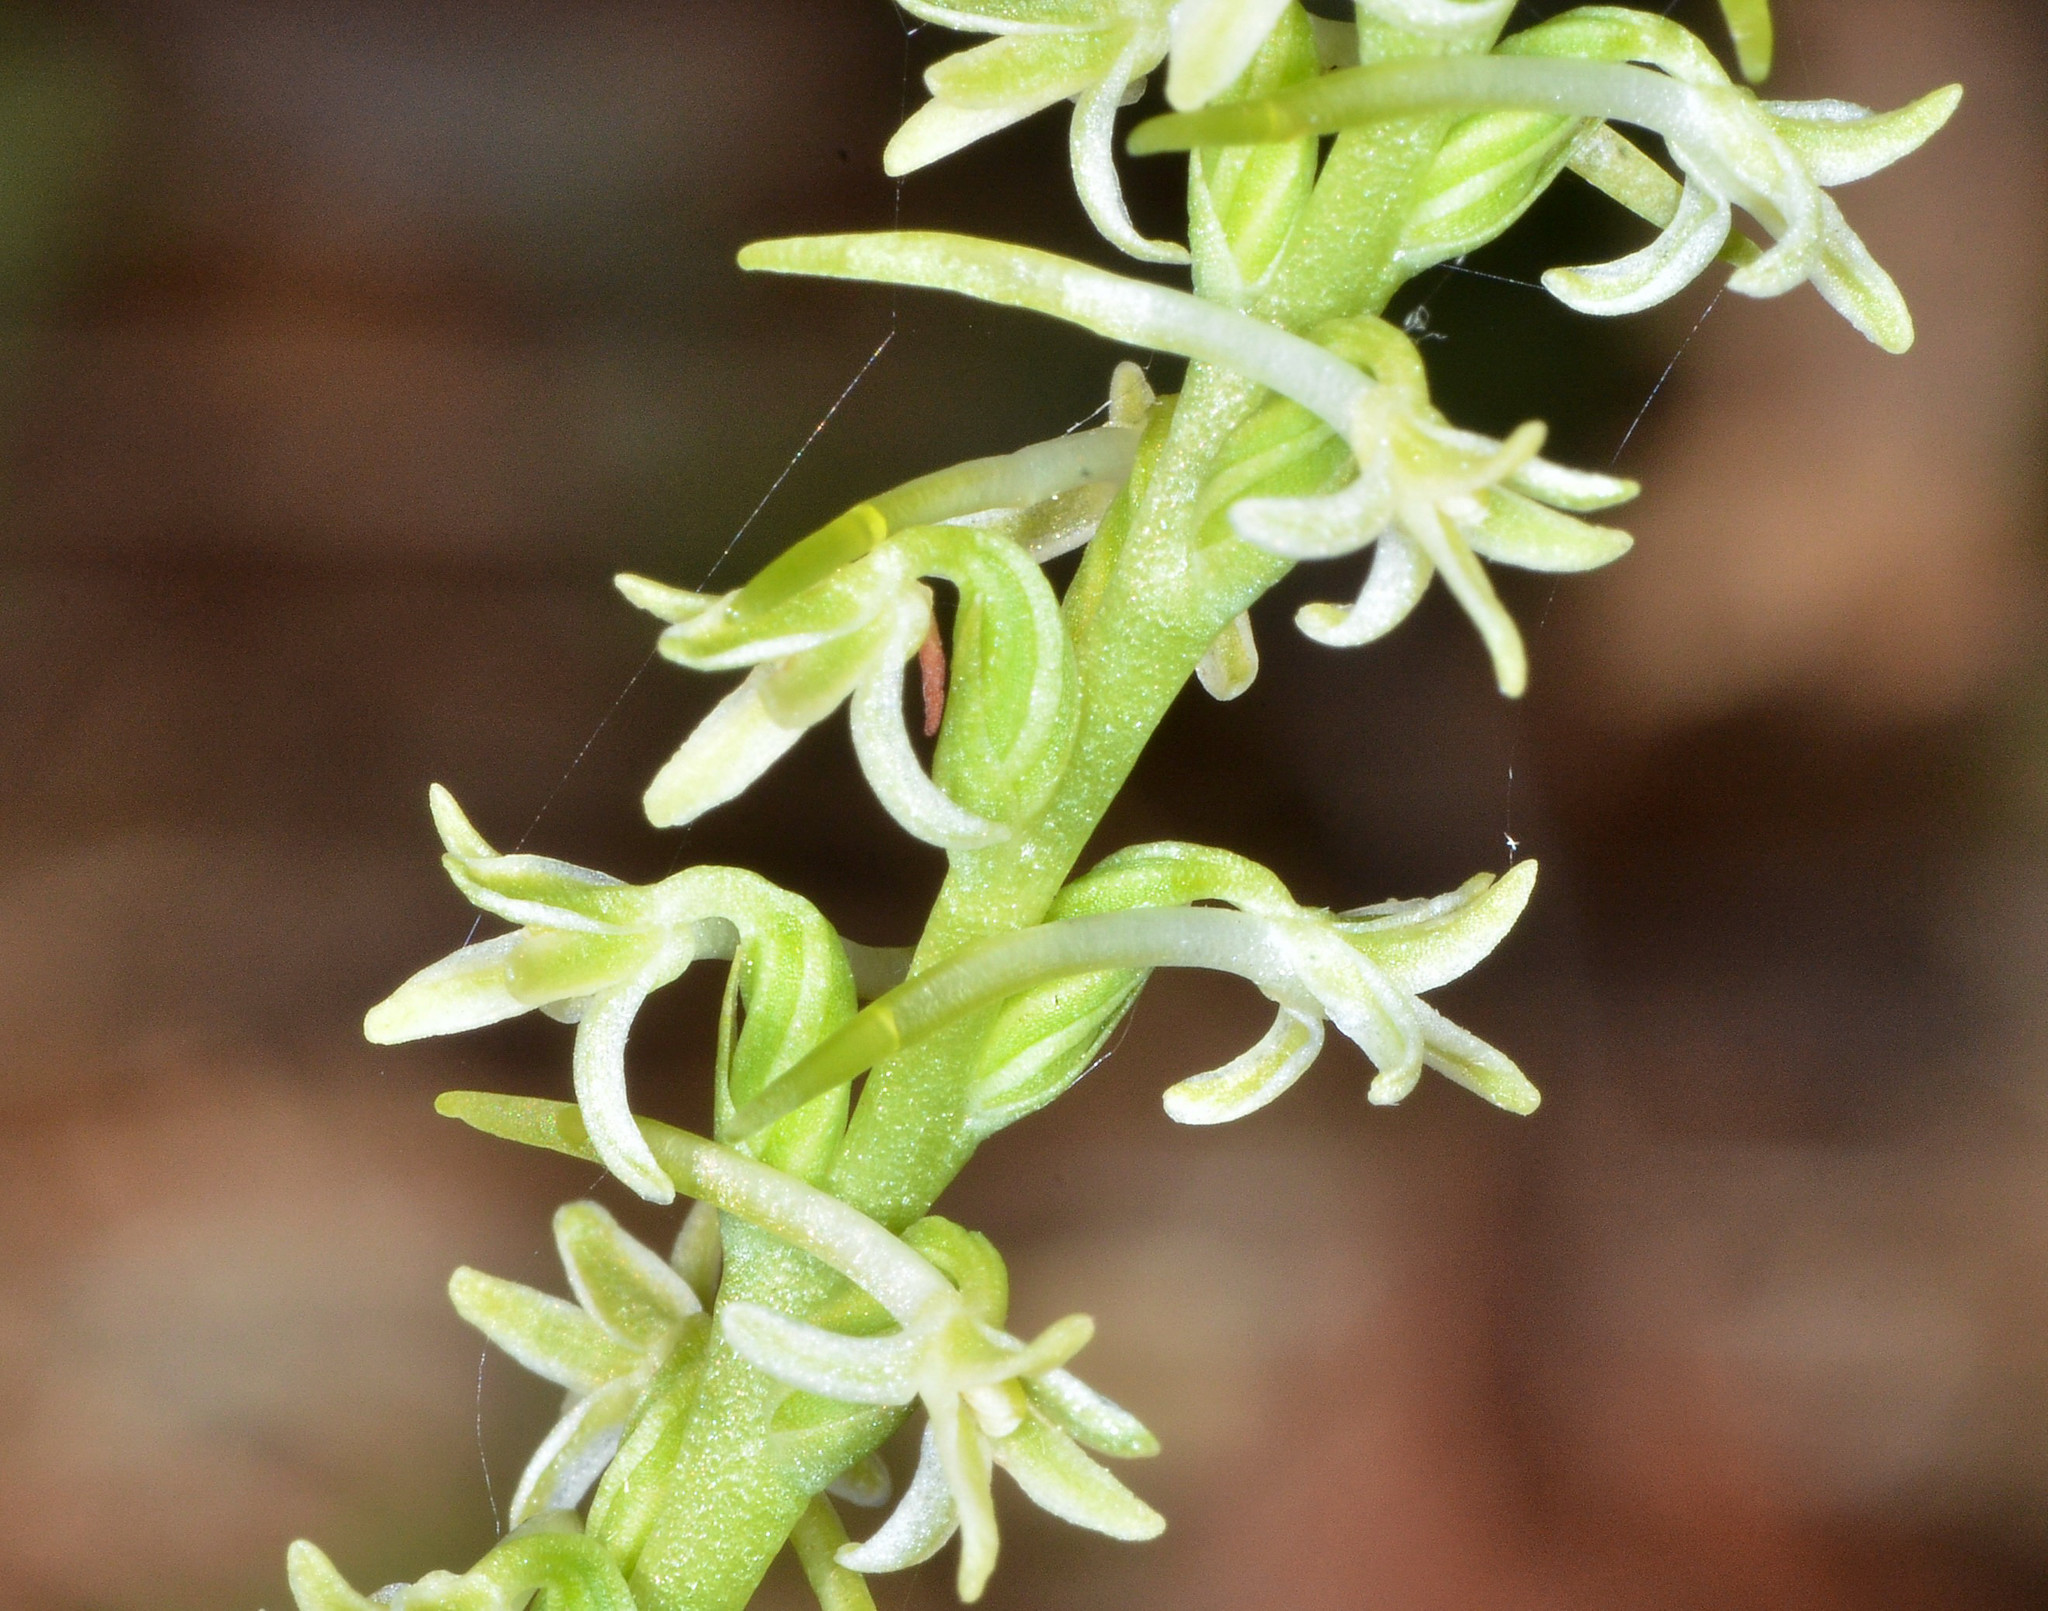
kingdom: Plantae
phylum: Tracheophyta
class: Liliopsida
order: Asparagales
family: Orchidaceae
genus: Platanthera
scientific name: Platanthera transversa
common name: Royal rein orchid
